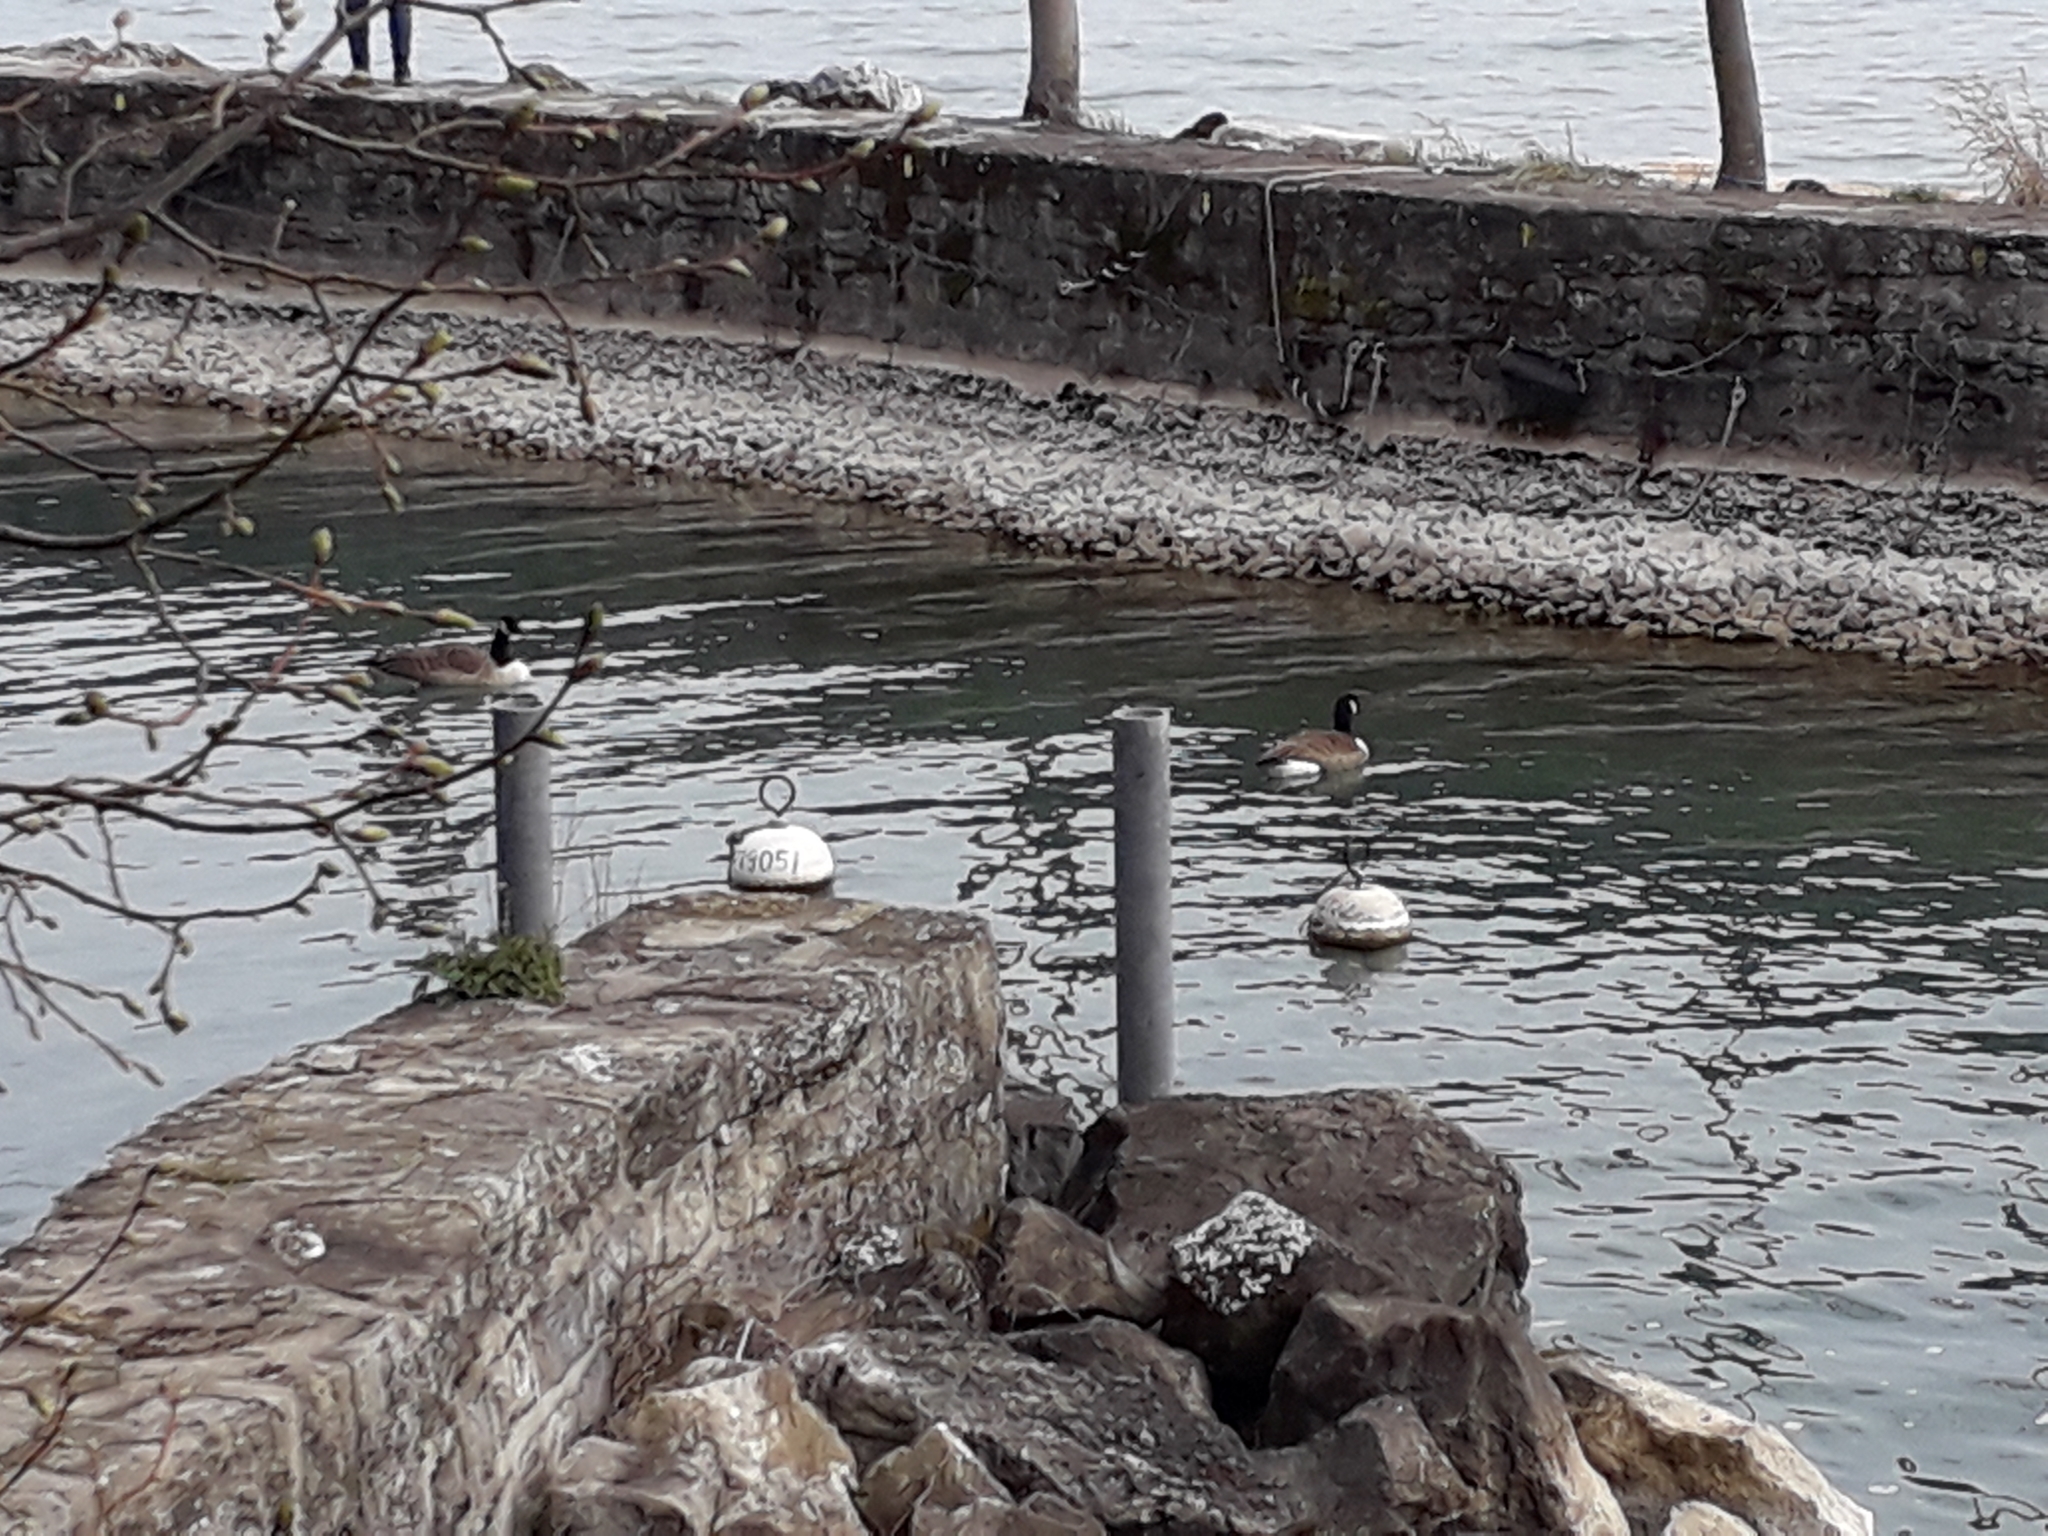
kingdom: Animalia
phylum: Chordata
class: Aves
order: Anseriformes
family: Anatidae
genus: Branta
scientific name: Branta canadensis
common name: Canada goose
